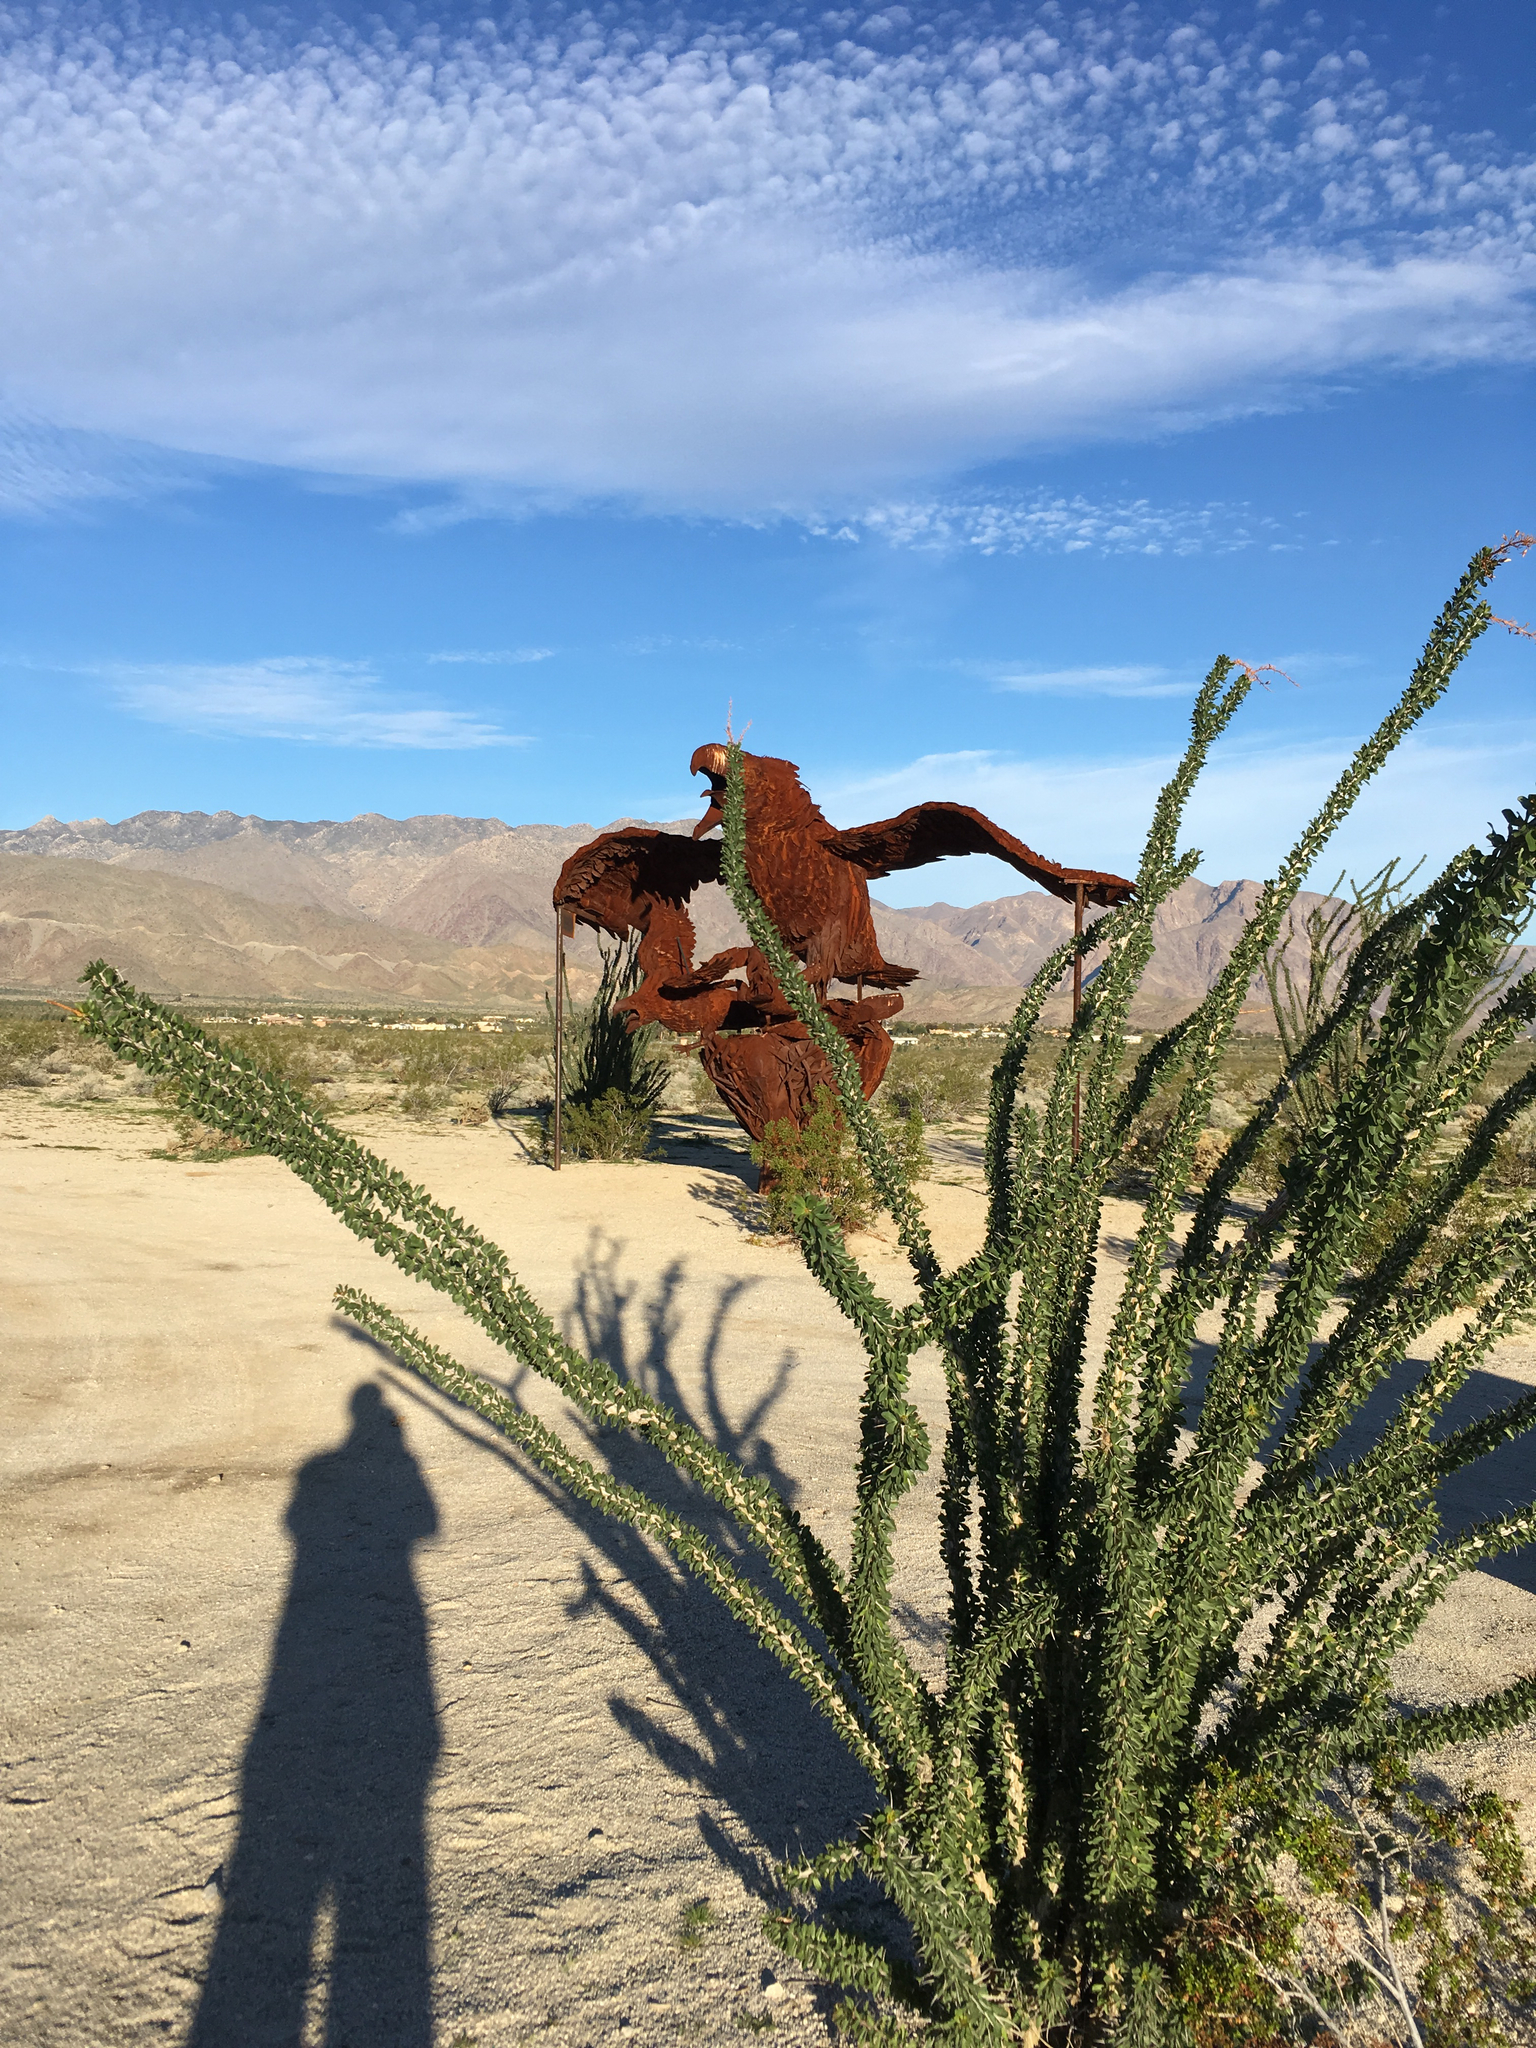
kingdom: Plantae
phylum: Tracheophyta
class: Magnoliopsida
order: Ericales
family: Fouquieriaceae
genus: Fouquieria
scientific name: Fouquieria splendens
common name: Vine-cactus
